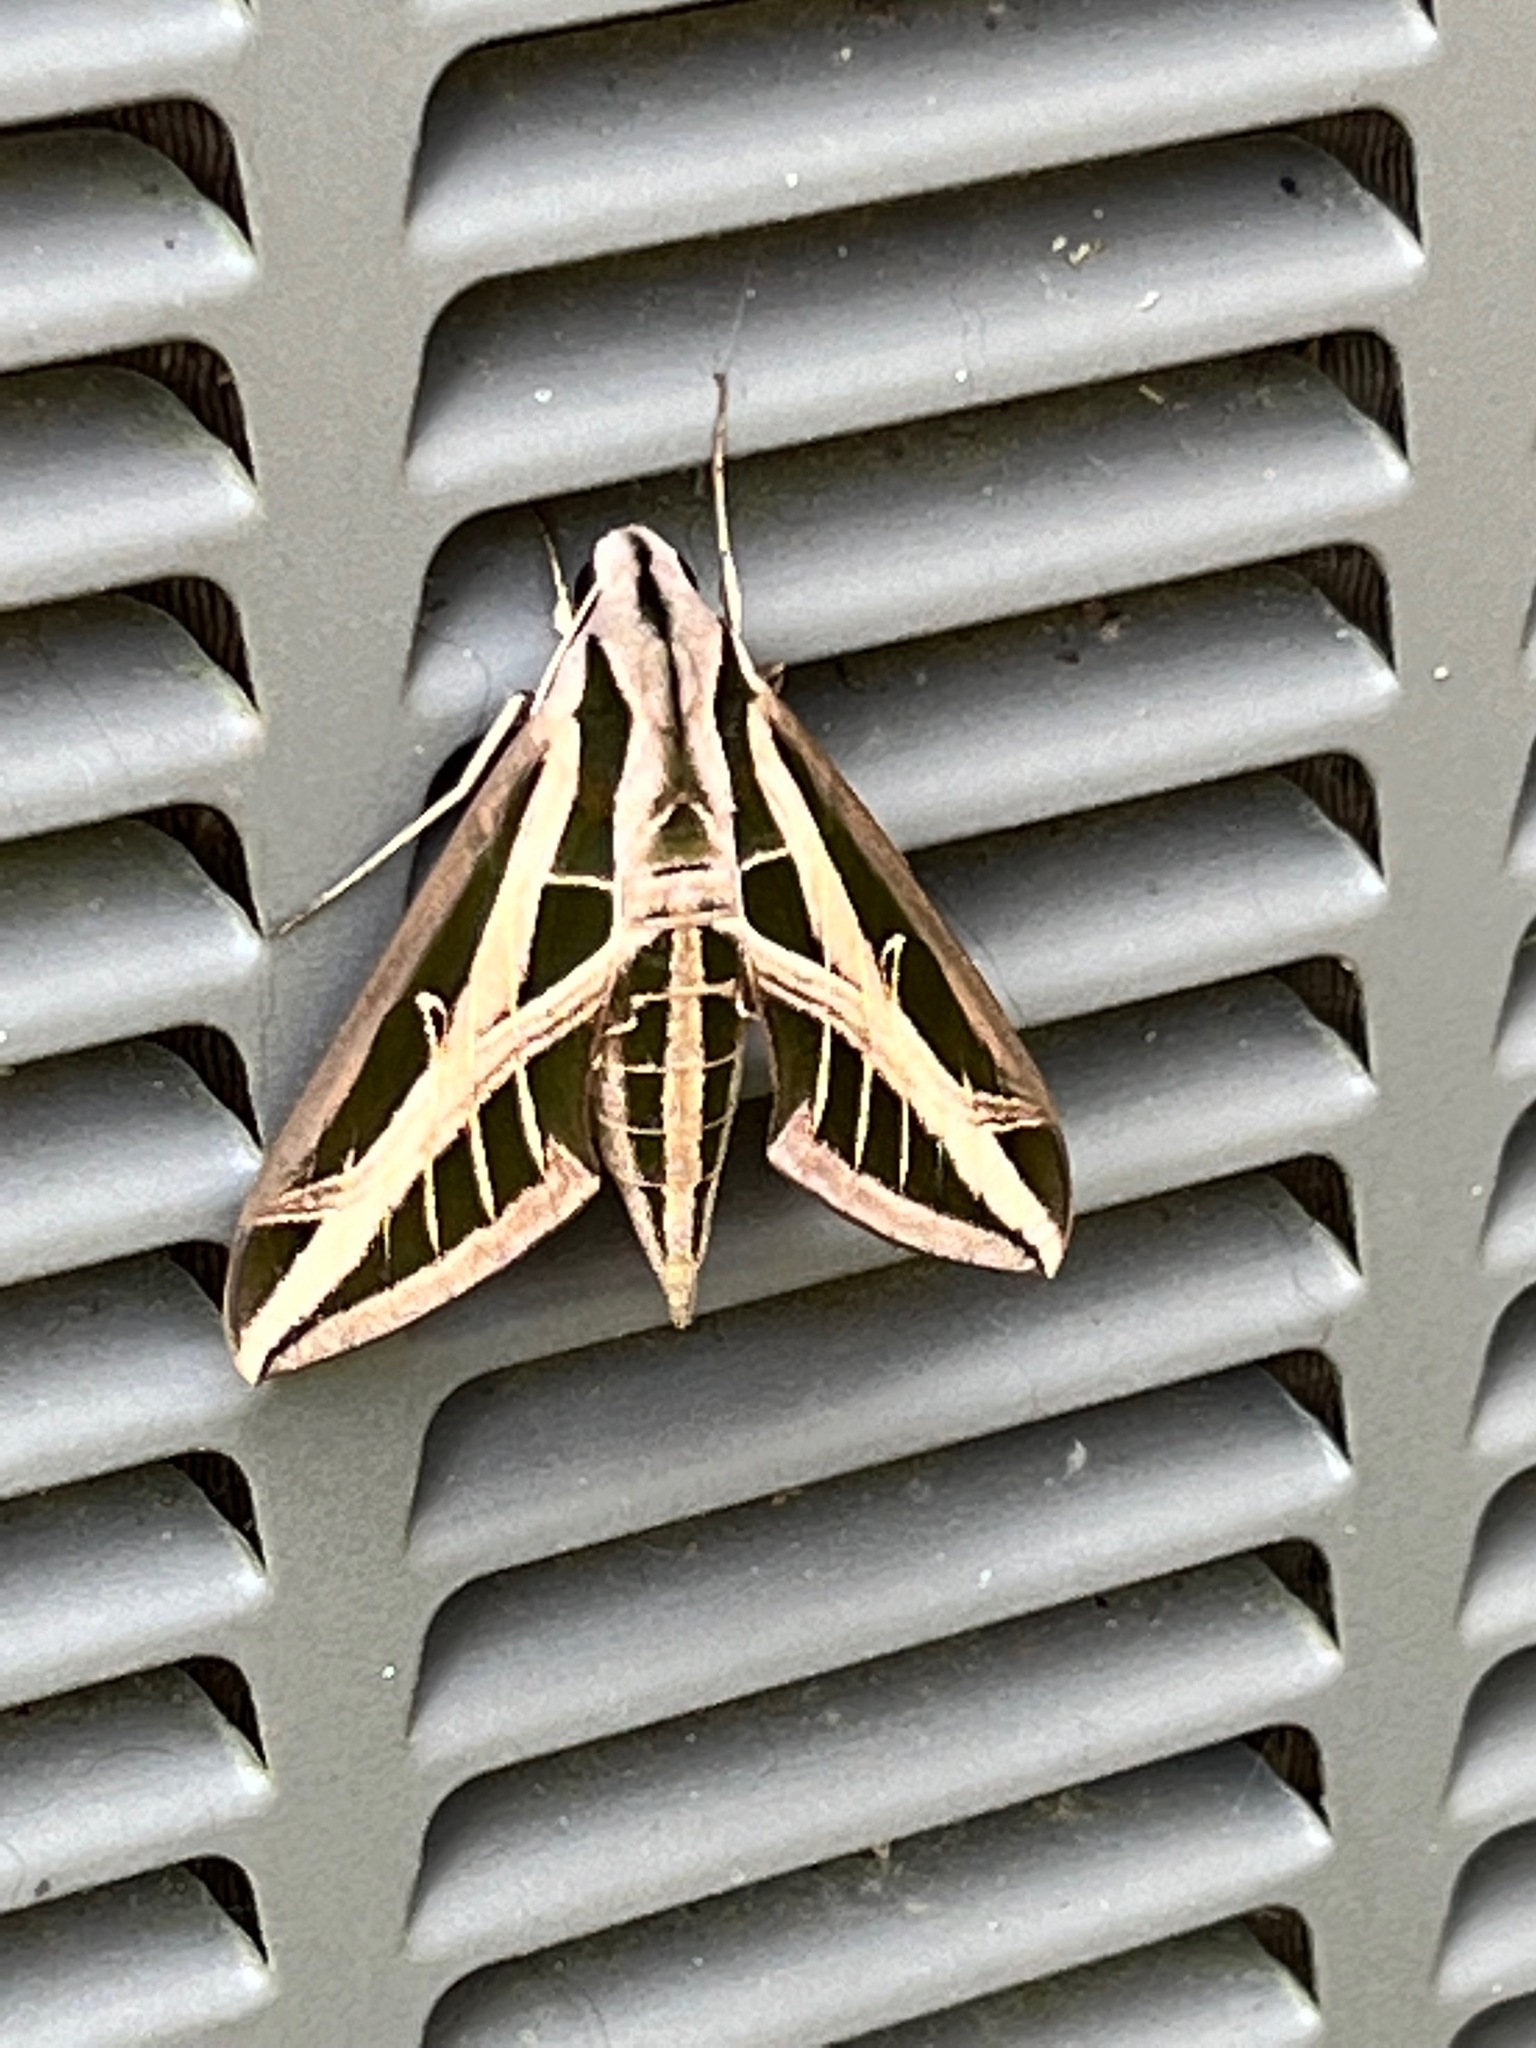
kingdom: Animalia
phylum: Arthropoda
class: Insecta
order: Lepidoptera
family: Sphingidae
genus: Eumorpha
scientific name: Eumorpha fasciatus
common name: Banded sphinx
